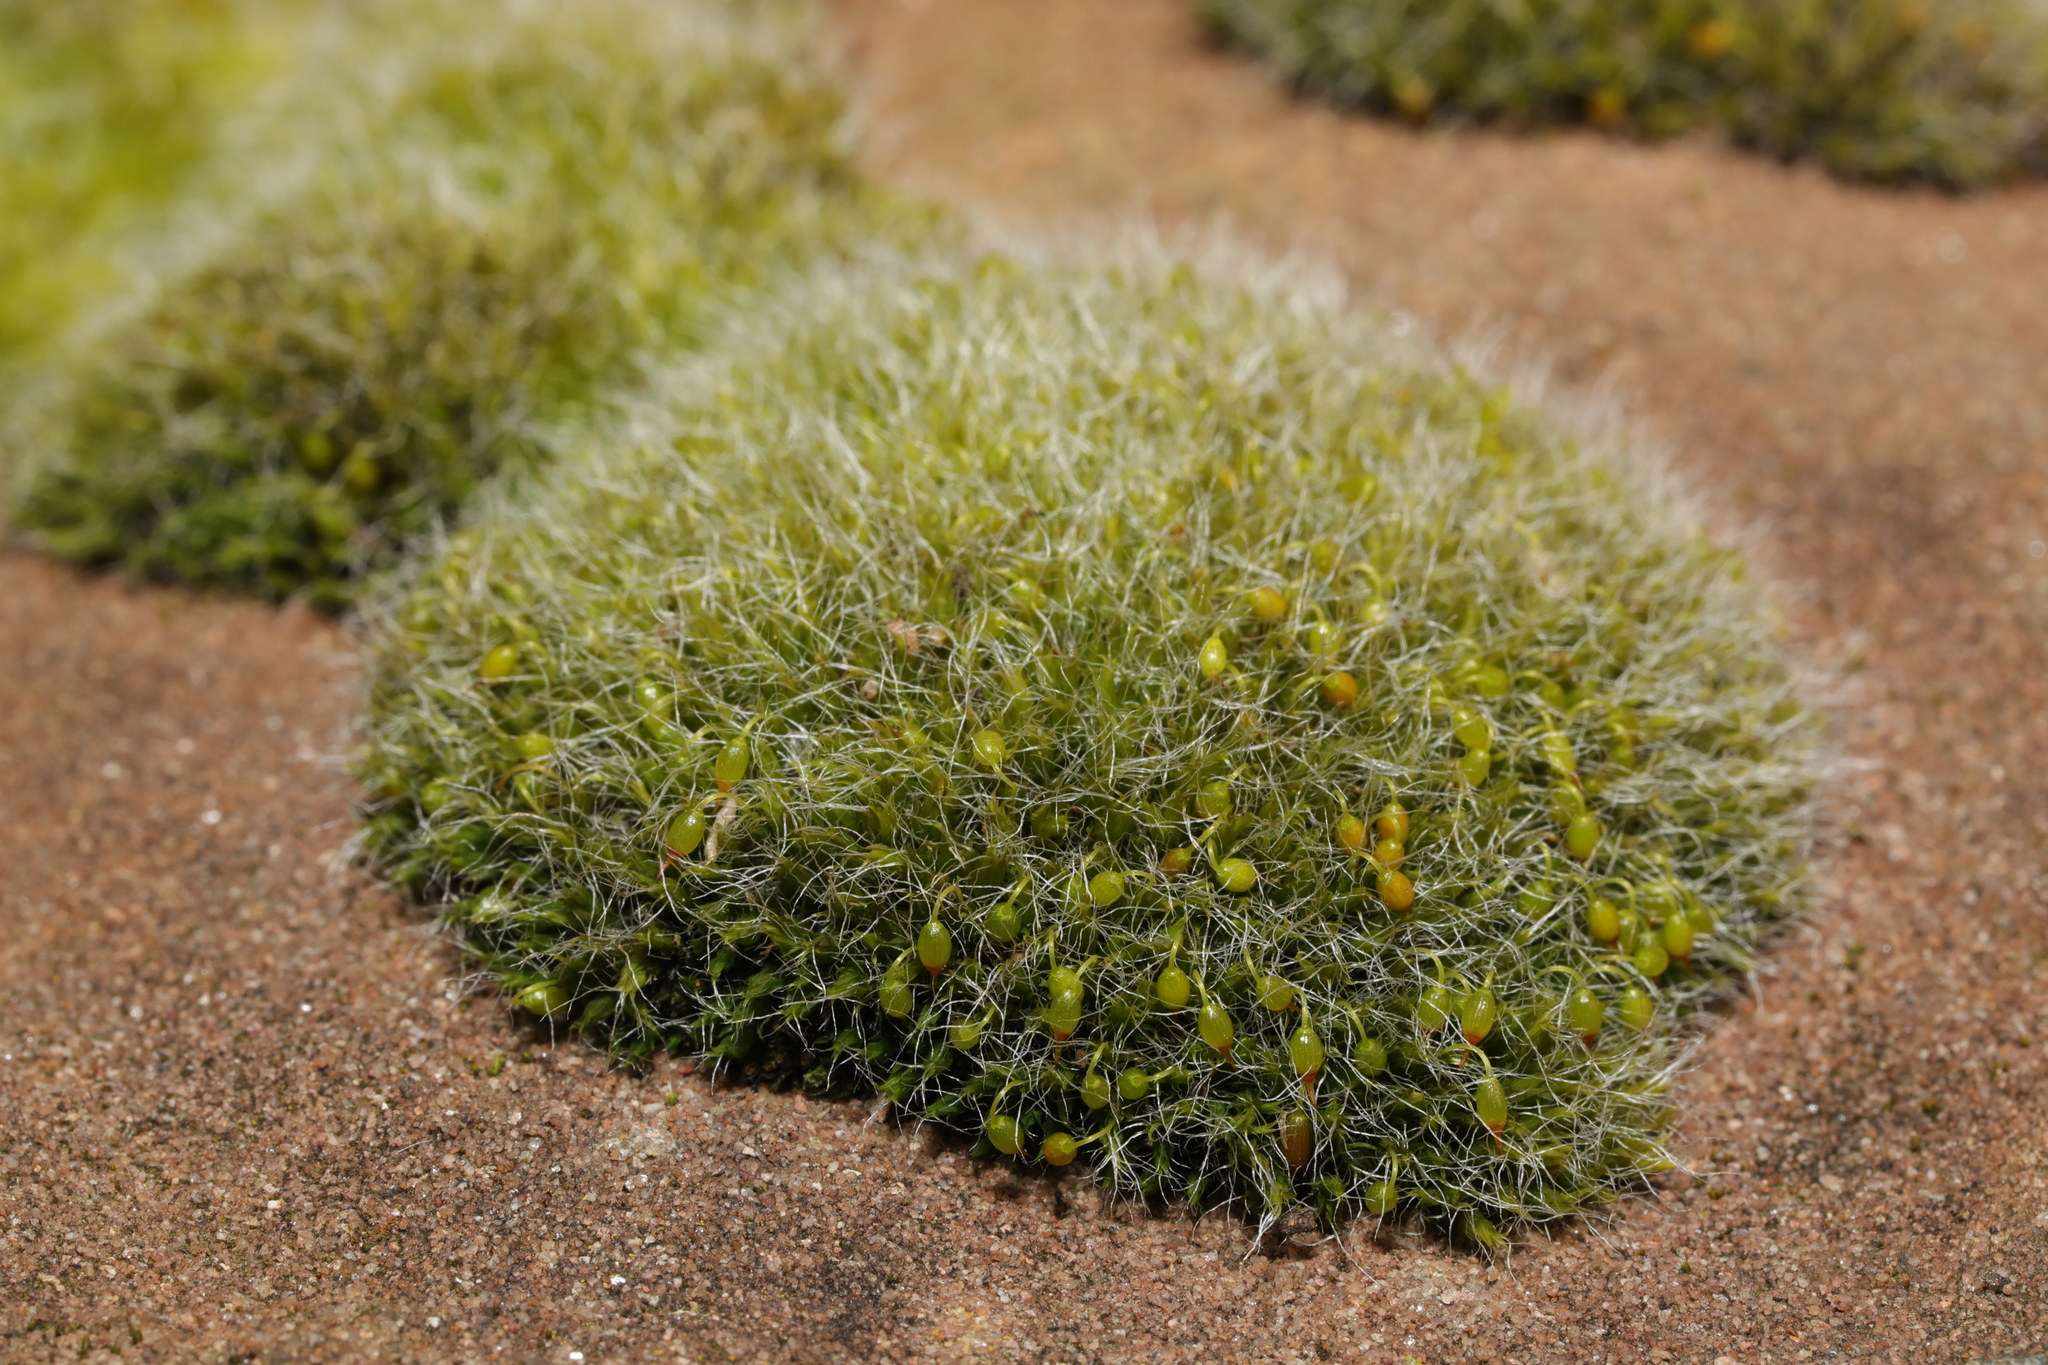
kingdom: Plantae
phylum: Bryophyta
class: Bryopsida
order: Grimmiales
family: Grimmiaceae
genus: Grimmia
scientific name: Grimmia pulvinata
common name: Grey-cushioned grimmia
